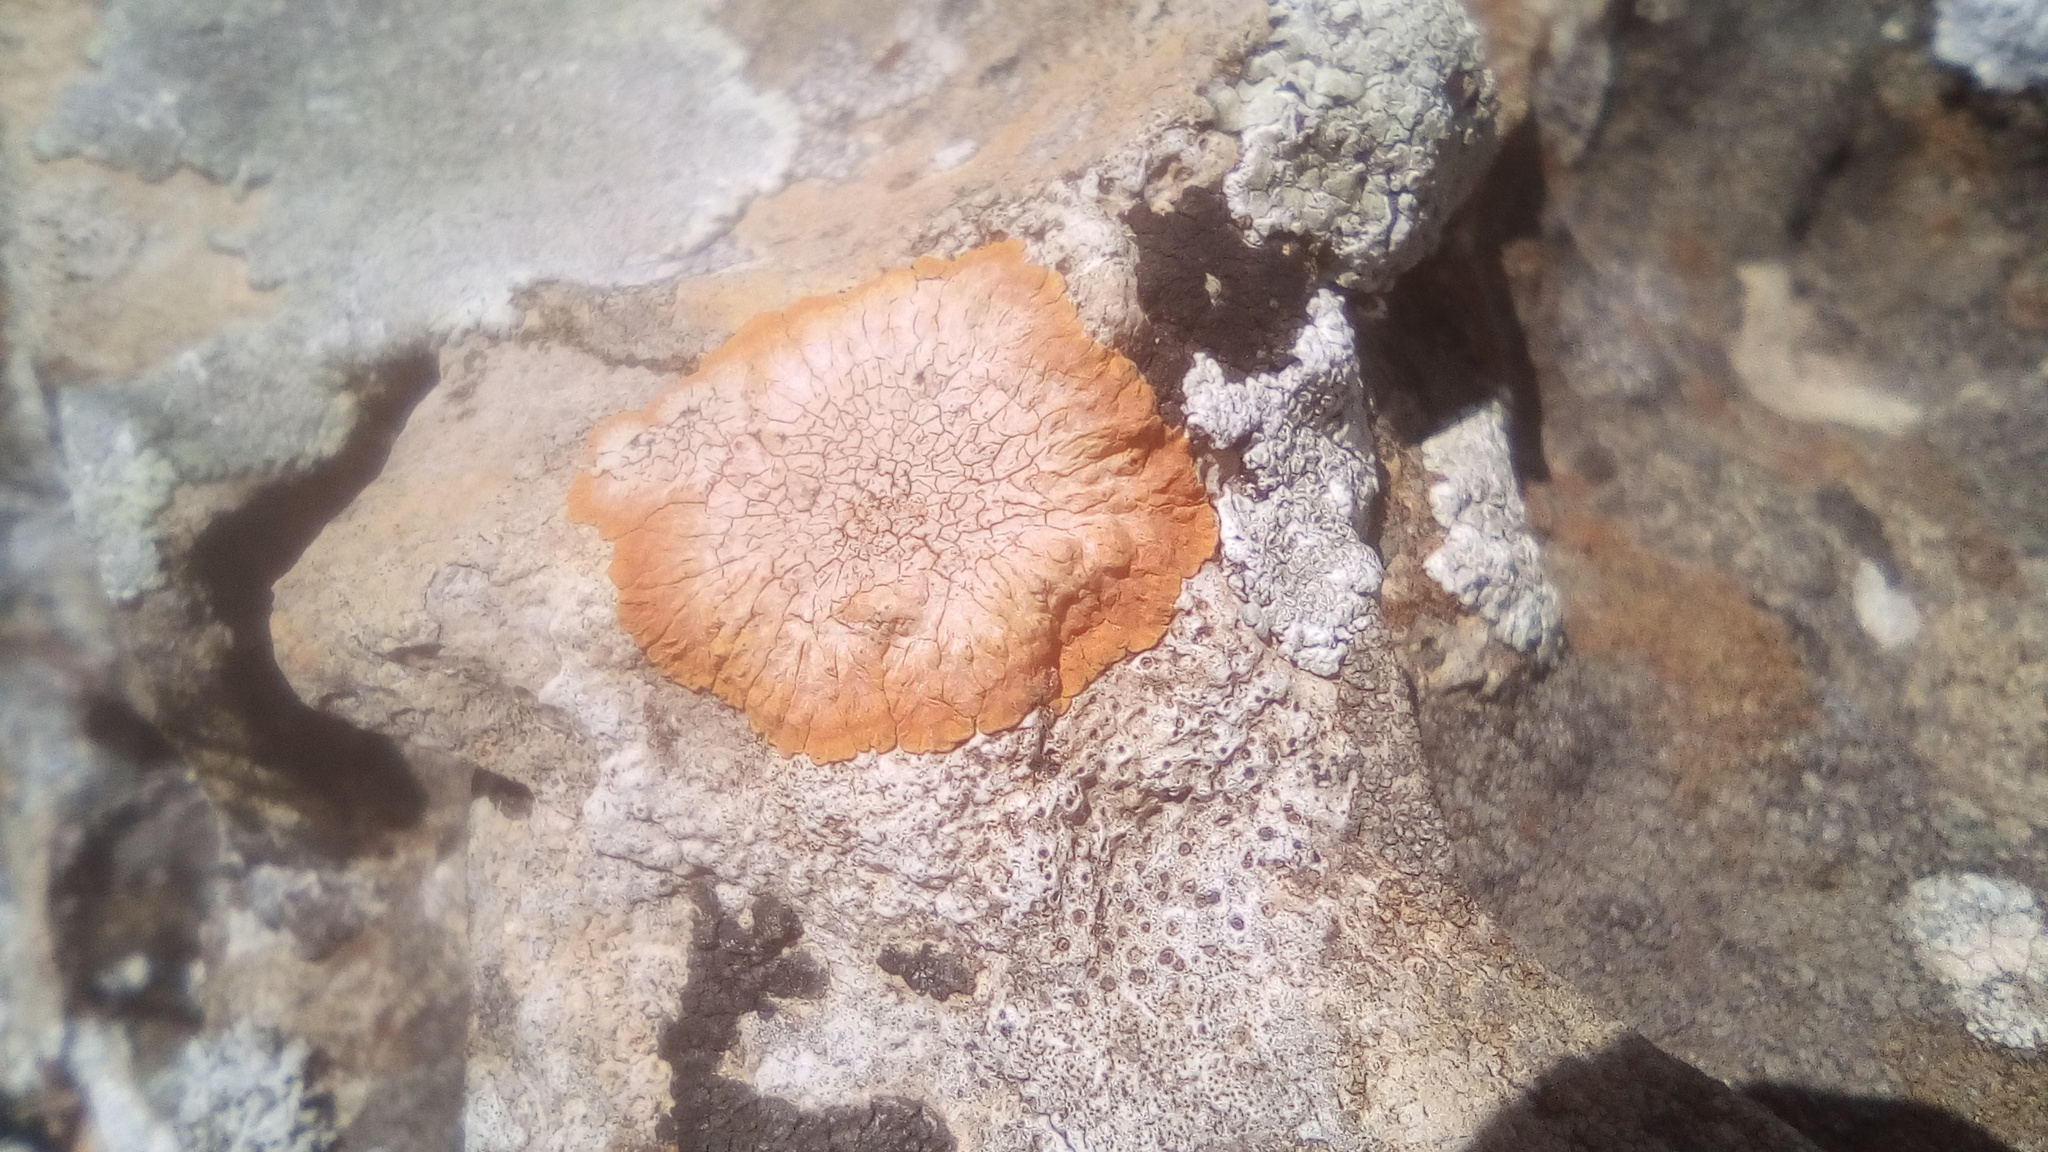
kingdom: Fungi
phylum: Ascomycota
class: Lecanoromycetes
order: Teloschistales
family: Teloschistaceae
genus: Variospora
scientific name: Variospora aurantia
